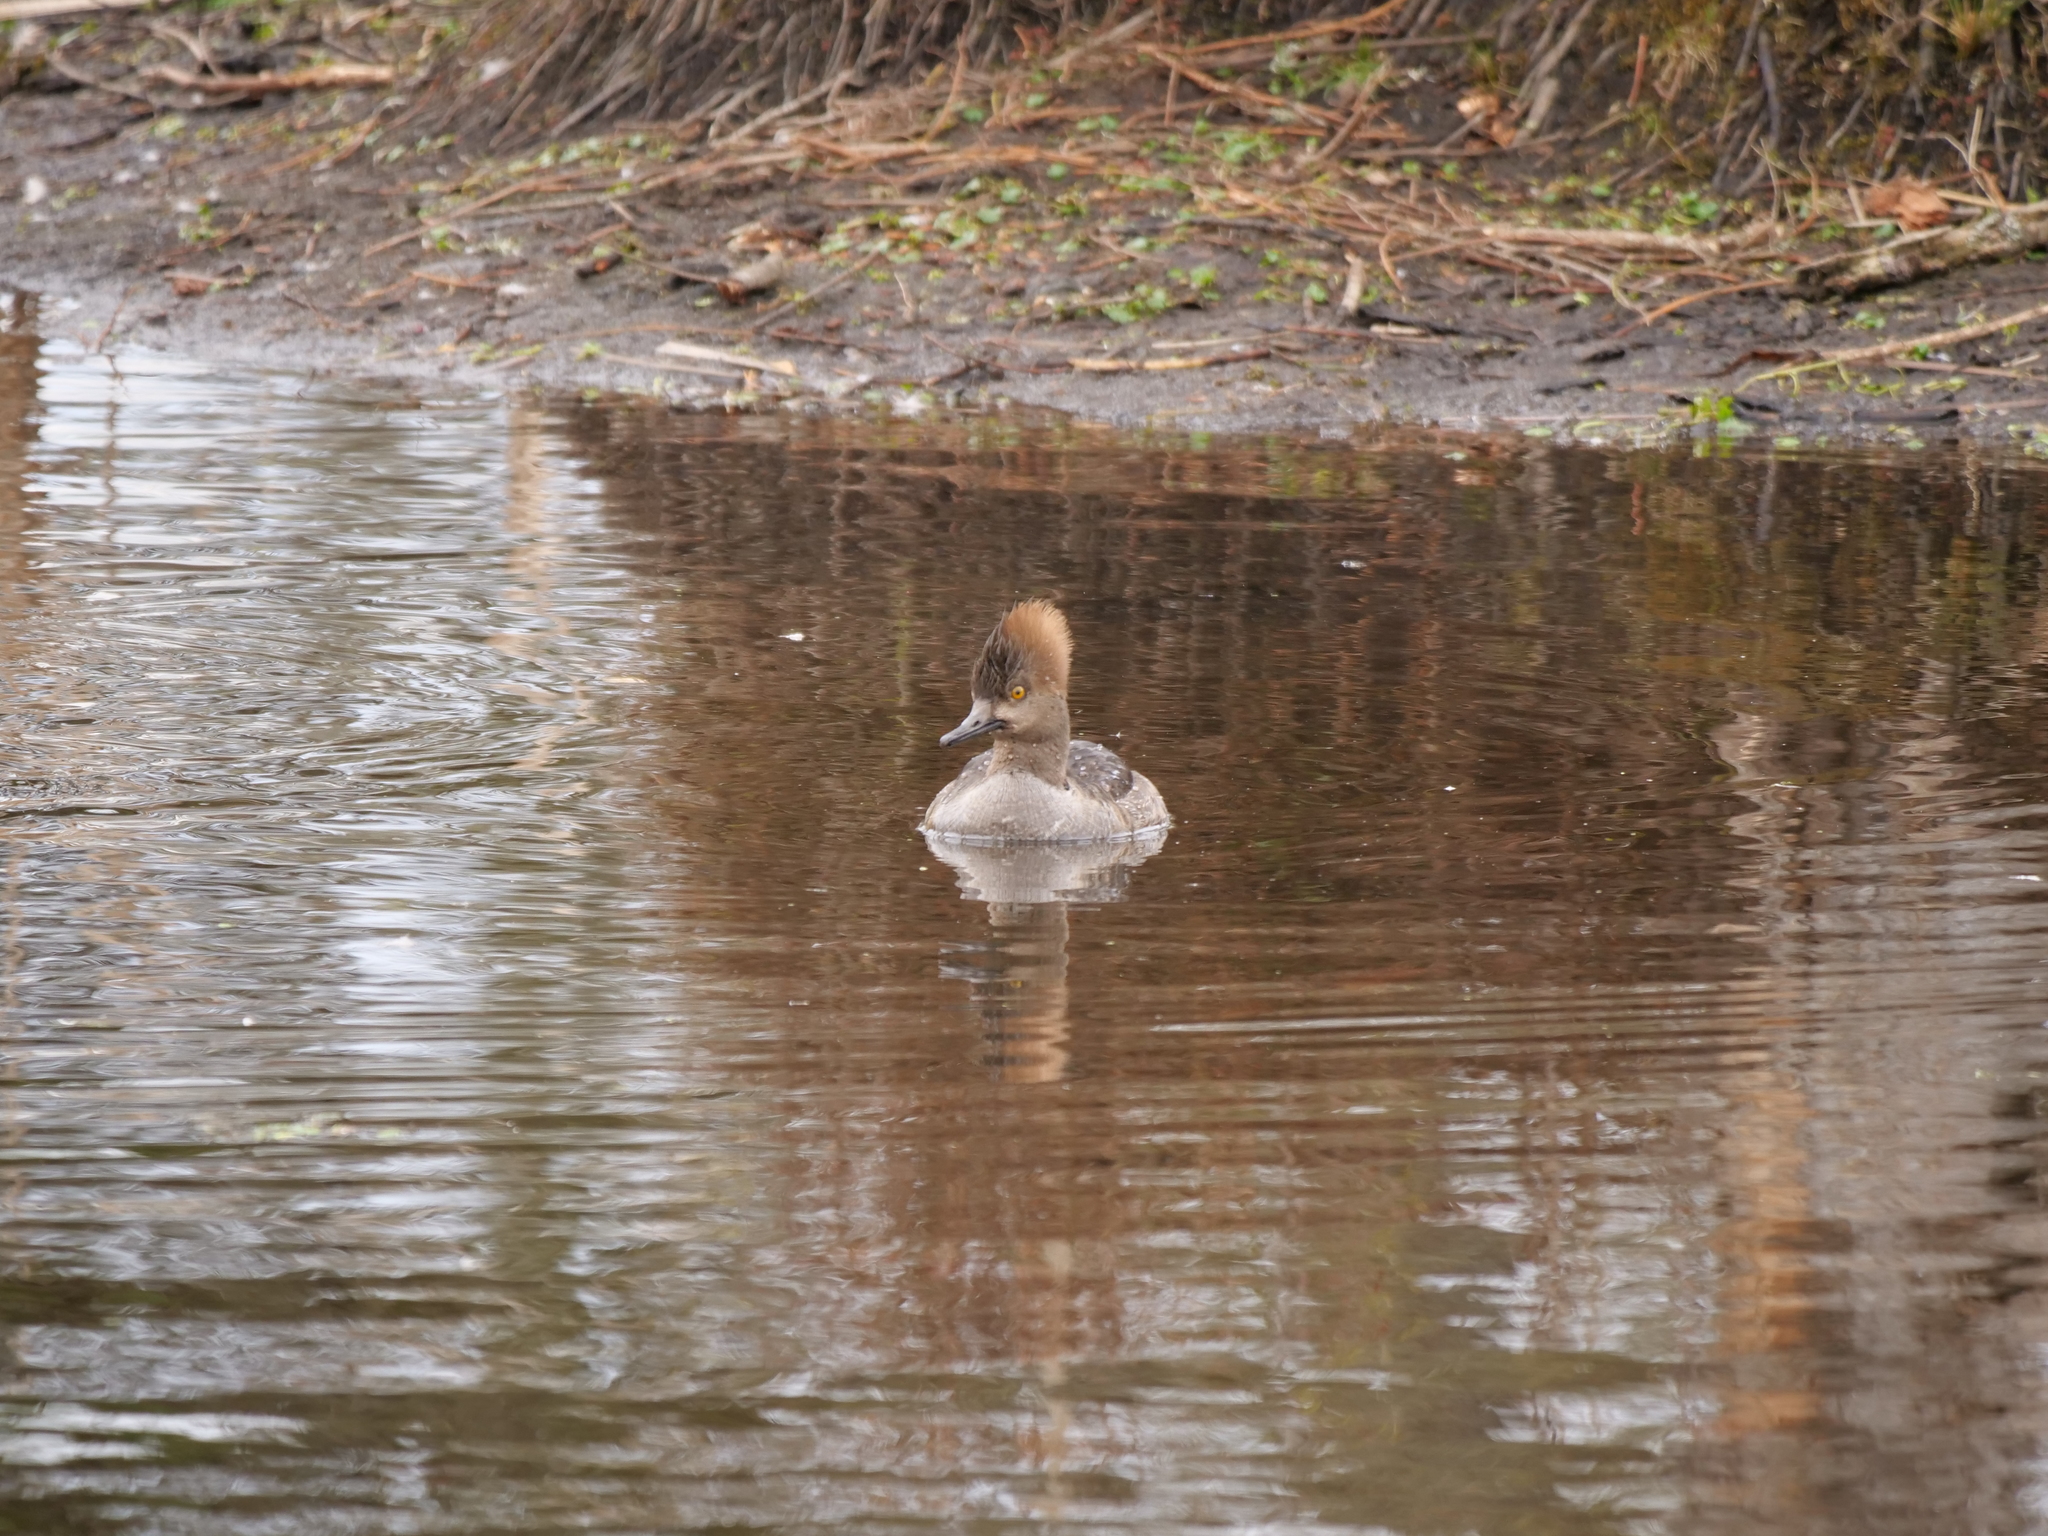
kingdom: Animalia
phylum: Chordata
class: Aves
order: Anseriformes
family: Anatidae
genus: Lophodytes
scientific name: Lophodytes cucullatus
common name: Hooded merganser
